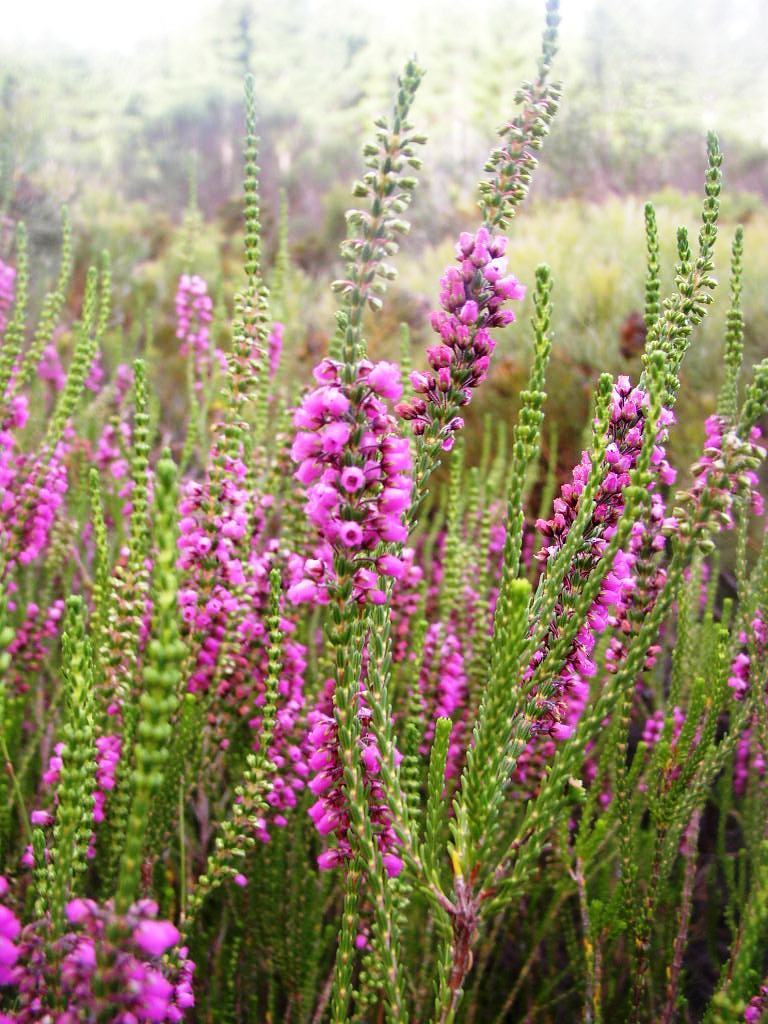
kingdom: Plantae
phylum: Tracheophyta
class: Magnoliopsida
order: Ericales
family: Ericaceae
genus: Erica
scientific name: Erica pulchella
